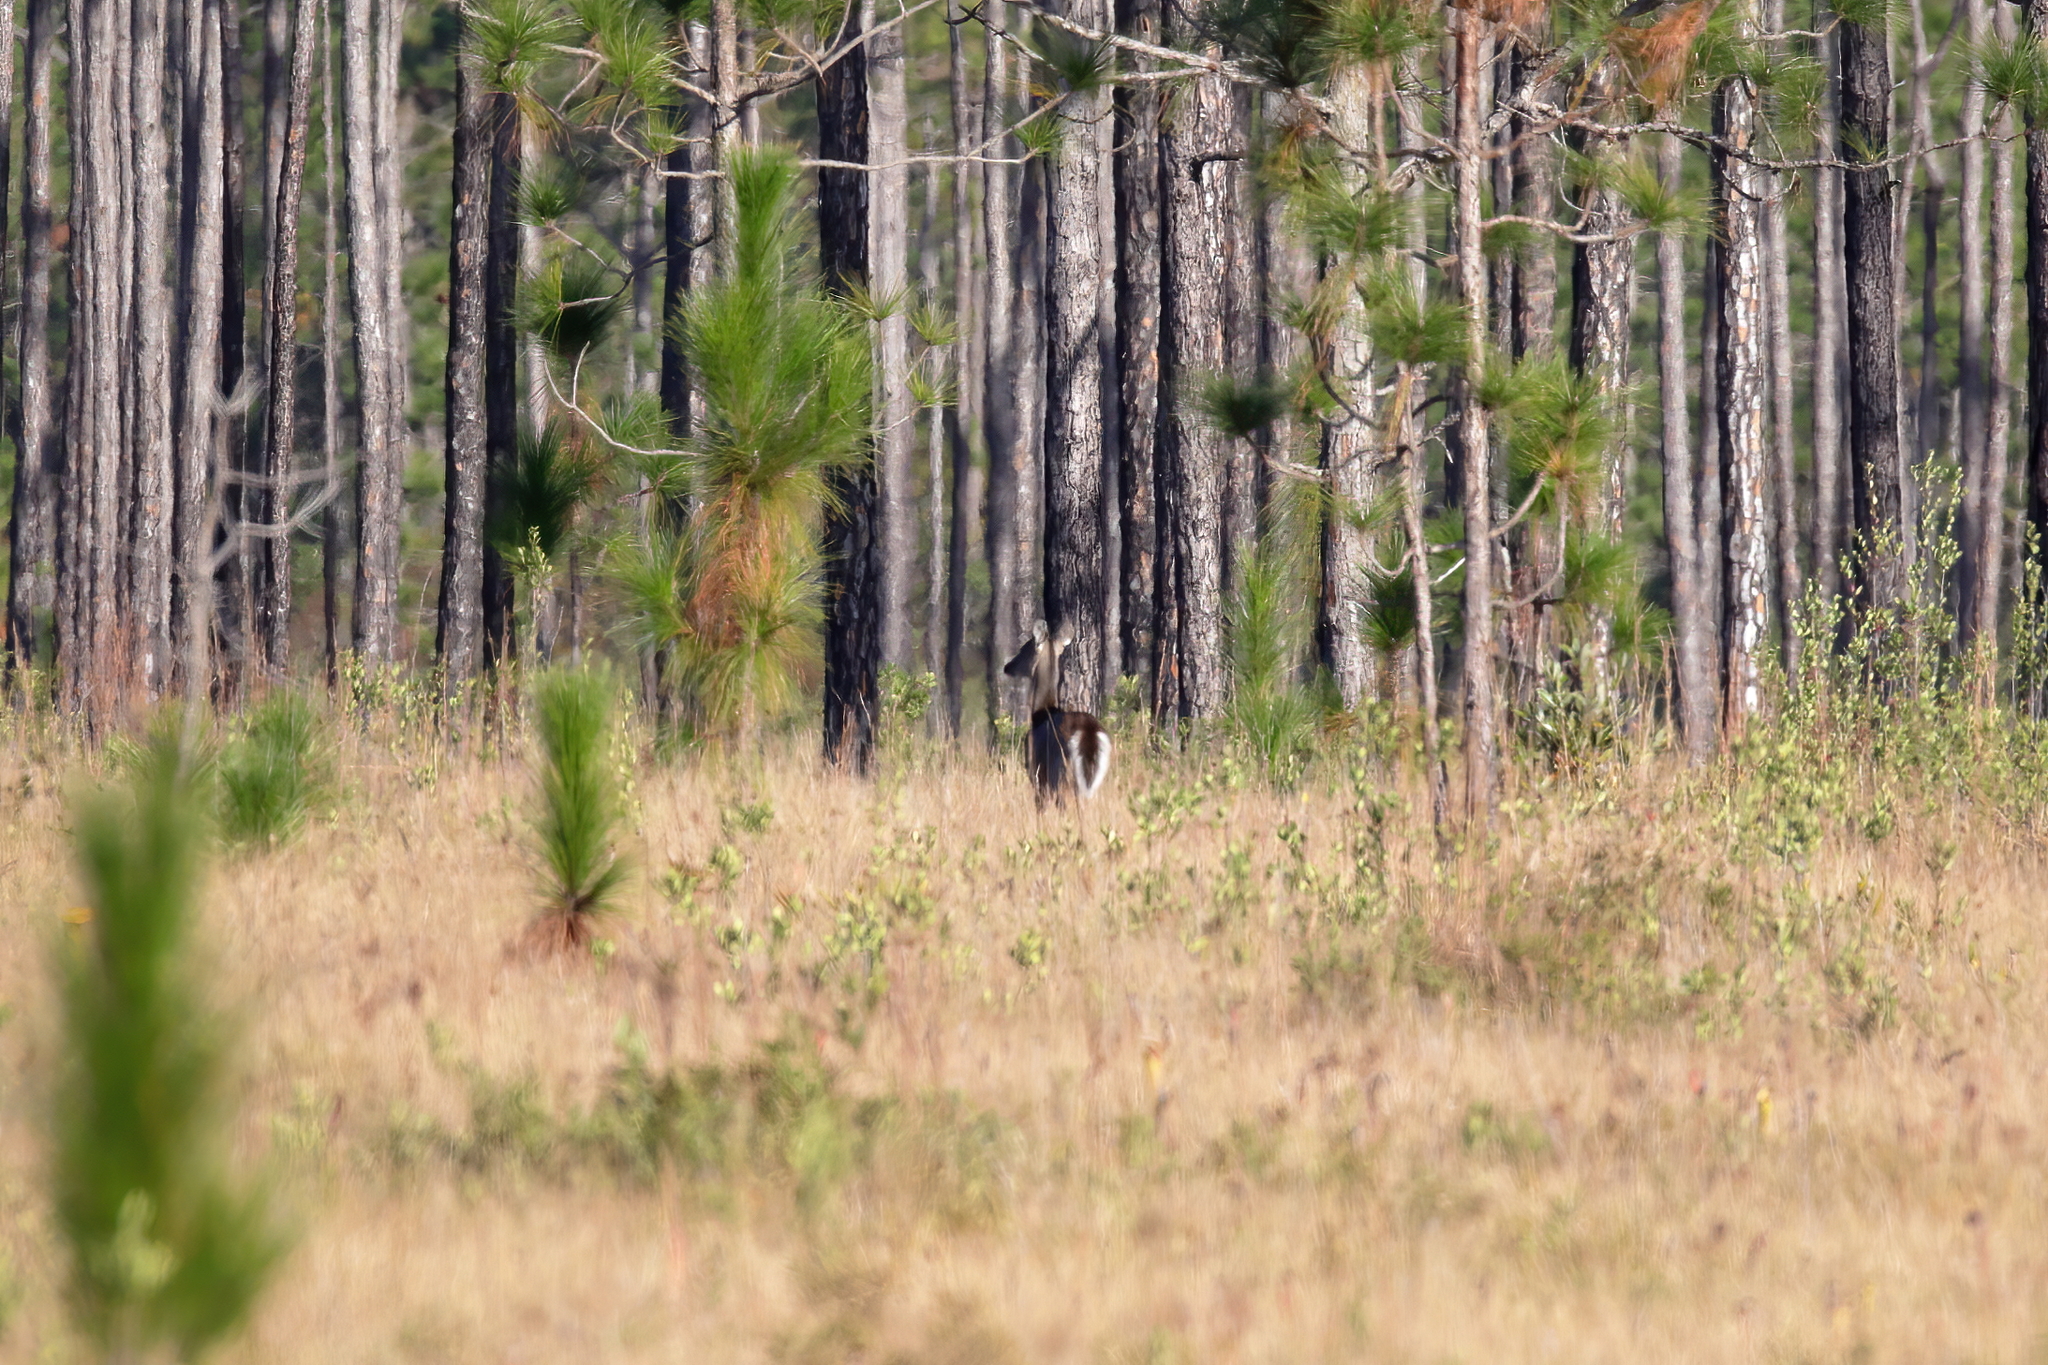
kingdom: Animalia
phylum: Chordata
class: Mammalia
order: Artiodactyla
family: Cervidae
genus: Odocoileus
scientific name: Odocoileus virginianus
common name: White-tailed deer
